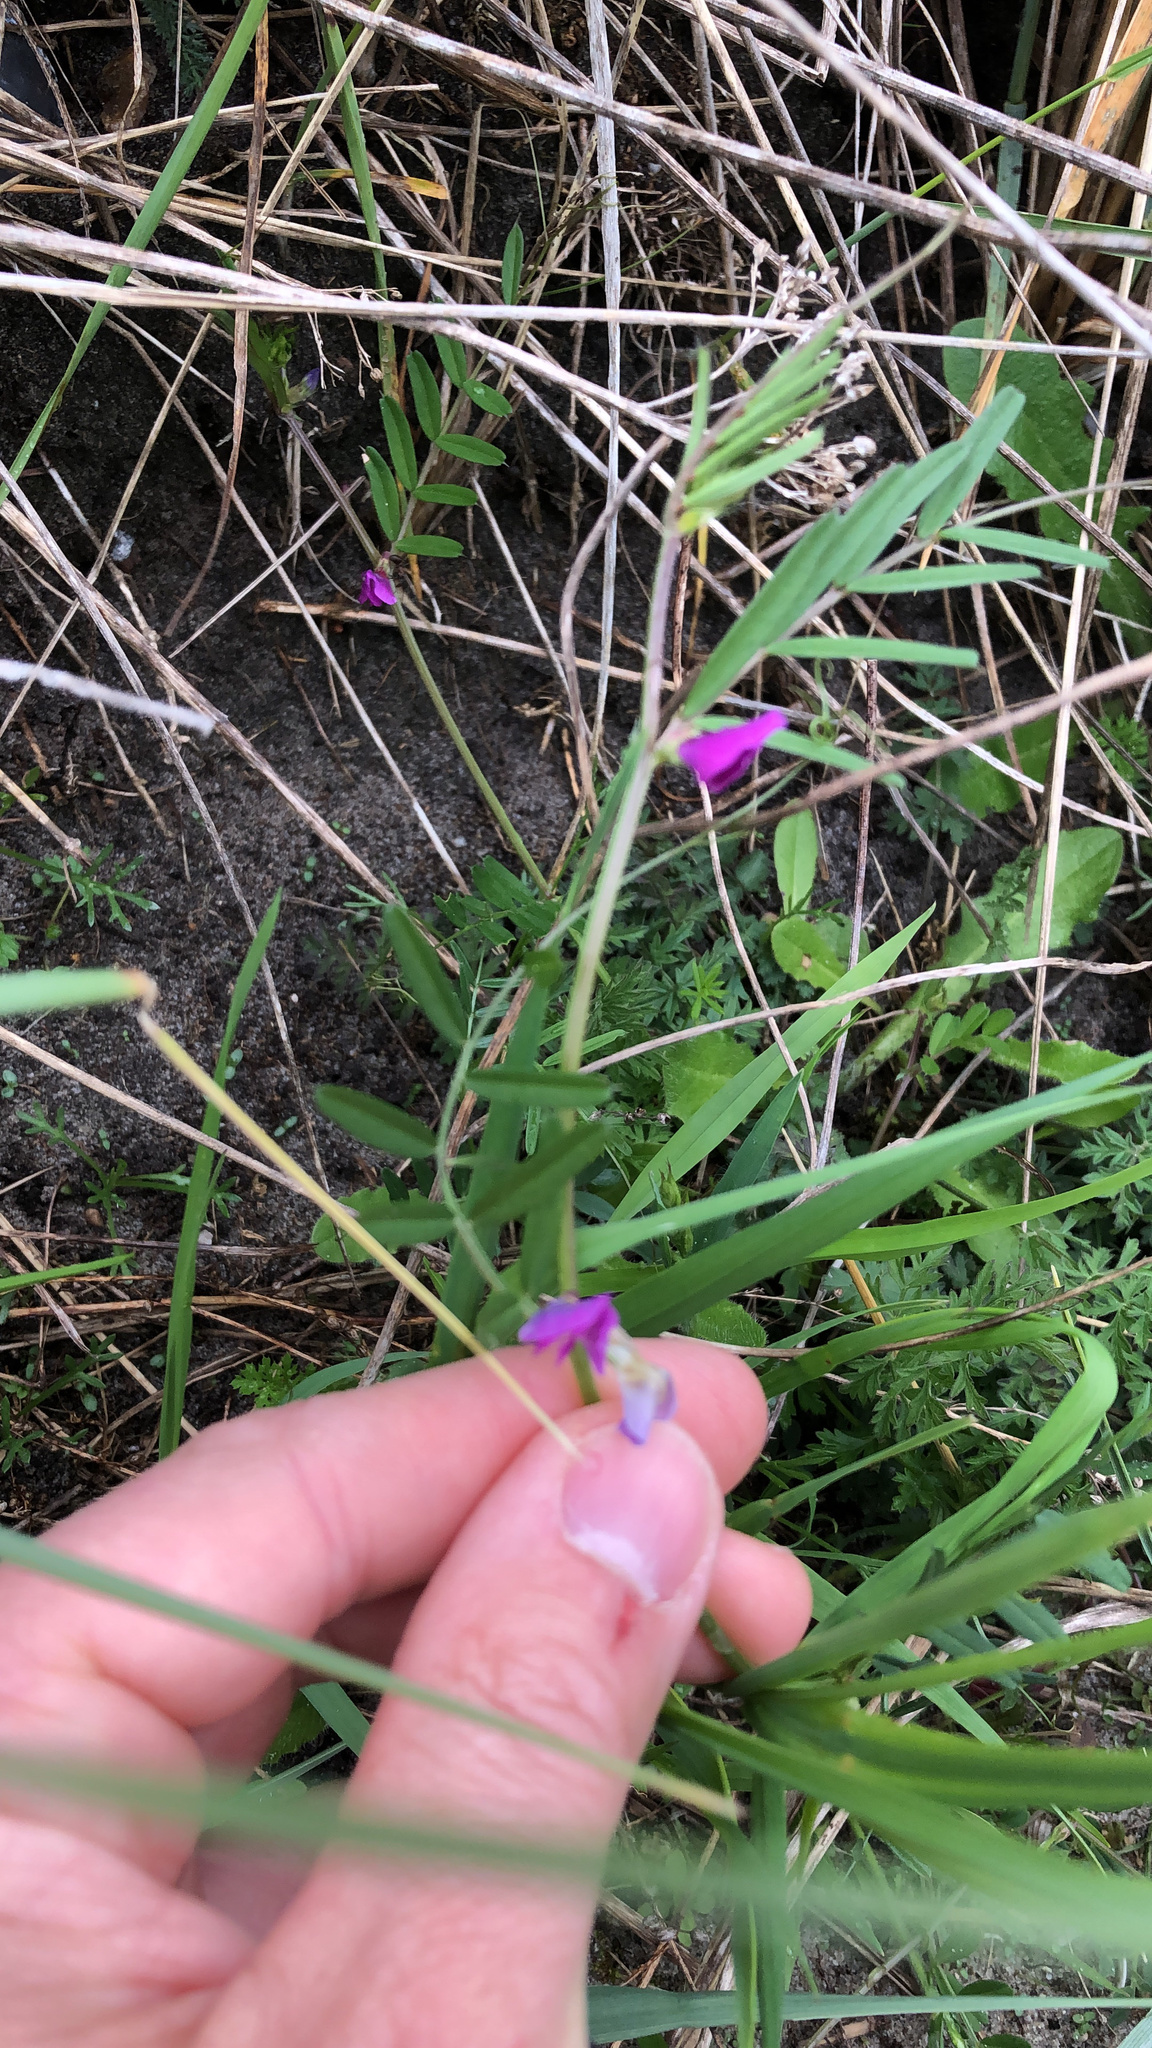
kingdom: Plantae
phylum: Tracheophyta
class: Magnoliopsida
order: Fabales
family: Fabaceae
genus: Vicia
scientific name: Vicia sativa
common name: Garden vetch
